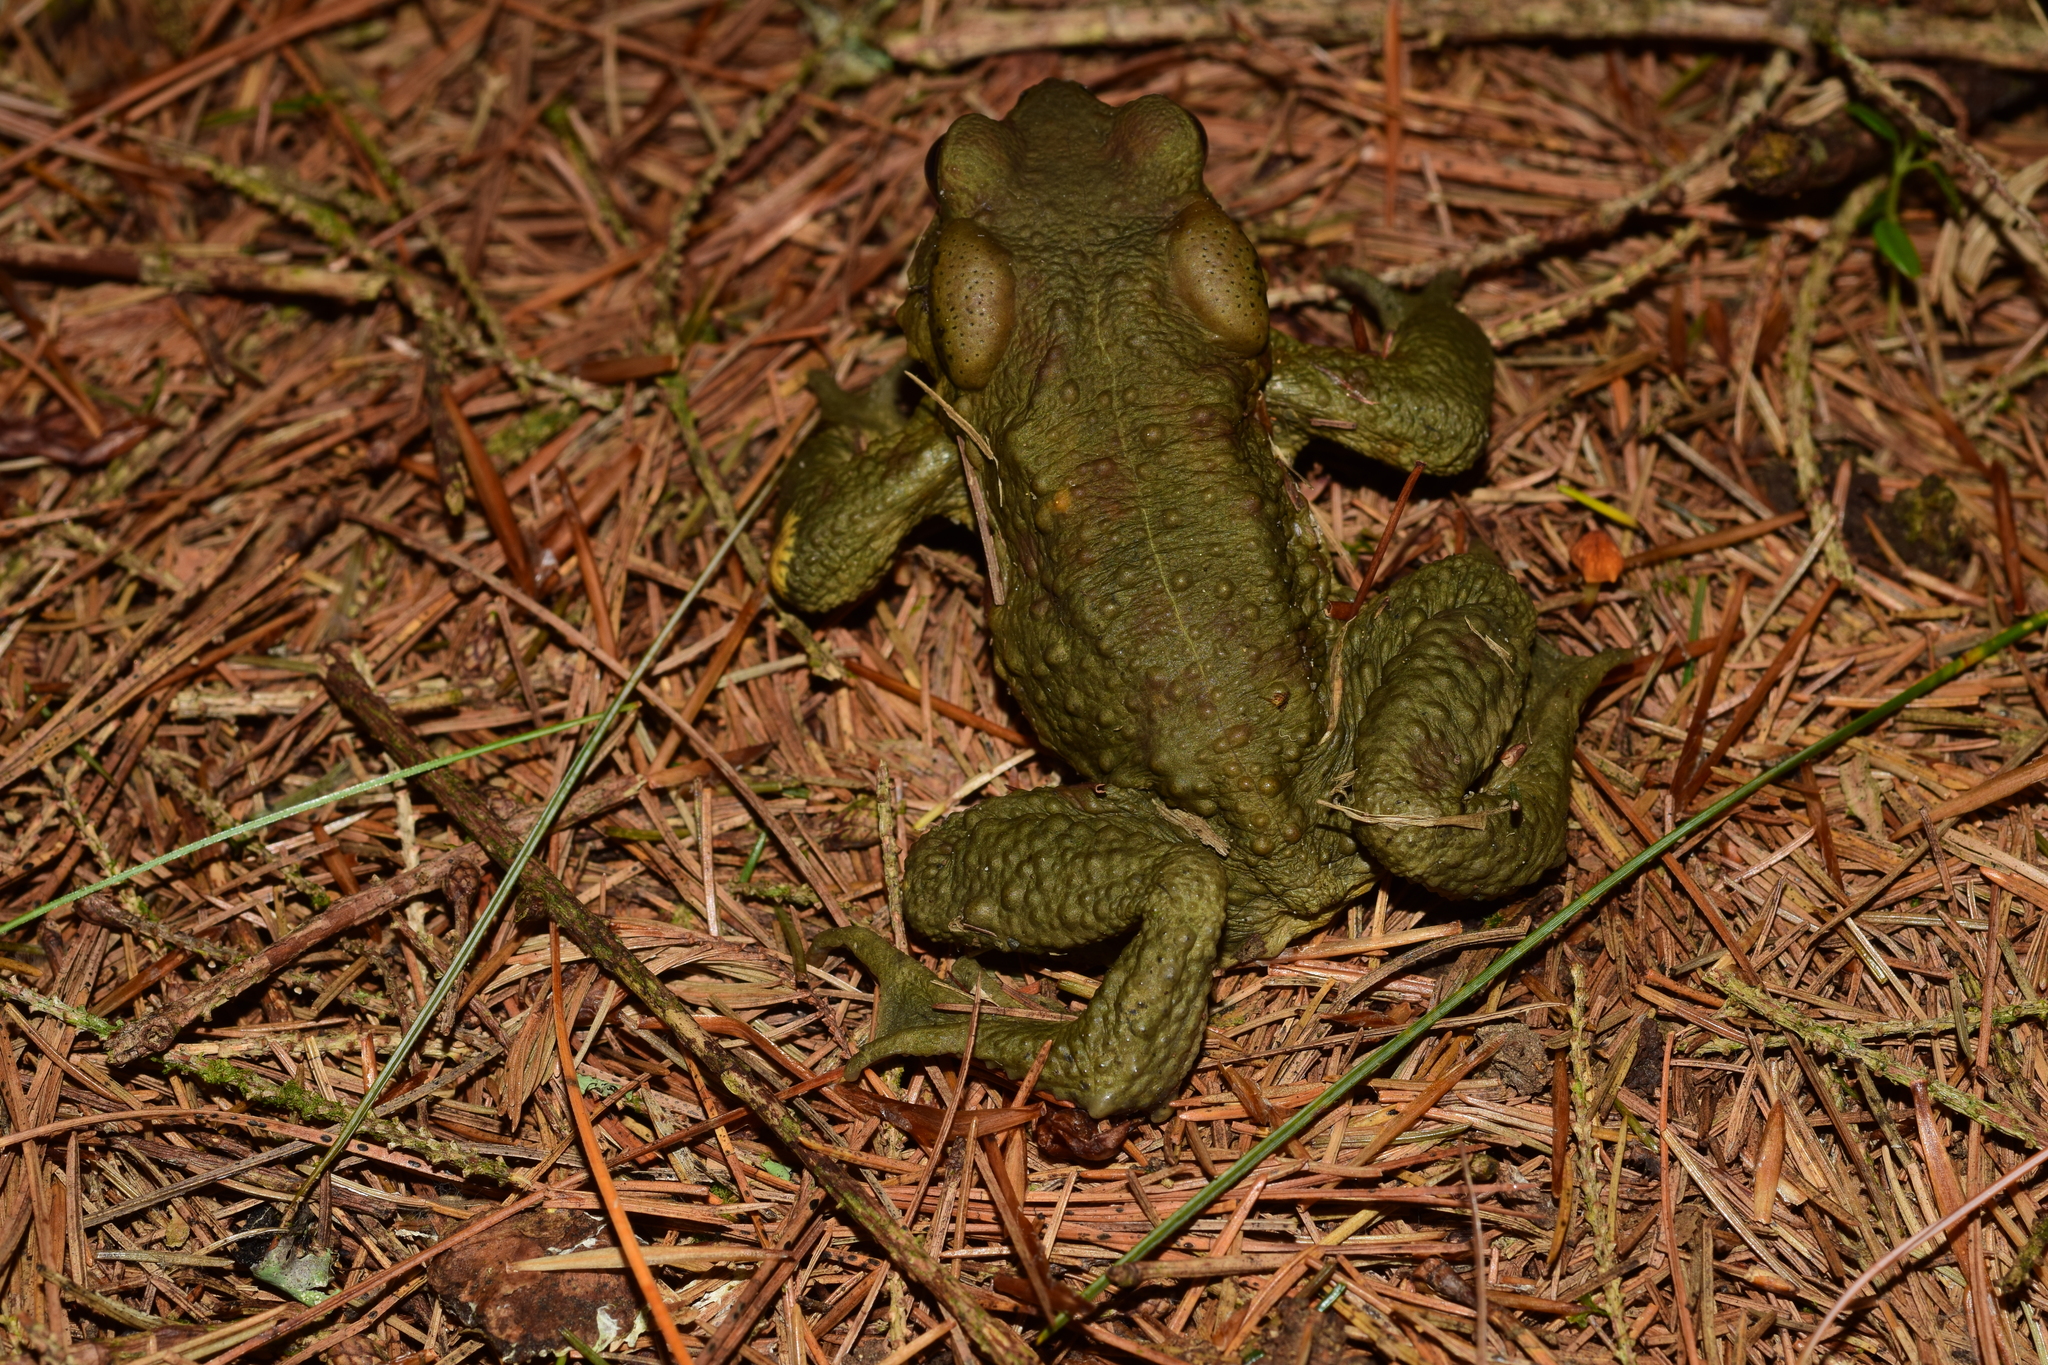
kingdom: Animalia
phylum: Chordata
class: Amphibia
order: Anura
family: Bufonidae
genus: Bufo
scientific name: Bufo bankorensis
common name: Bankor toad
